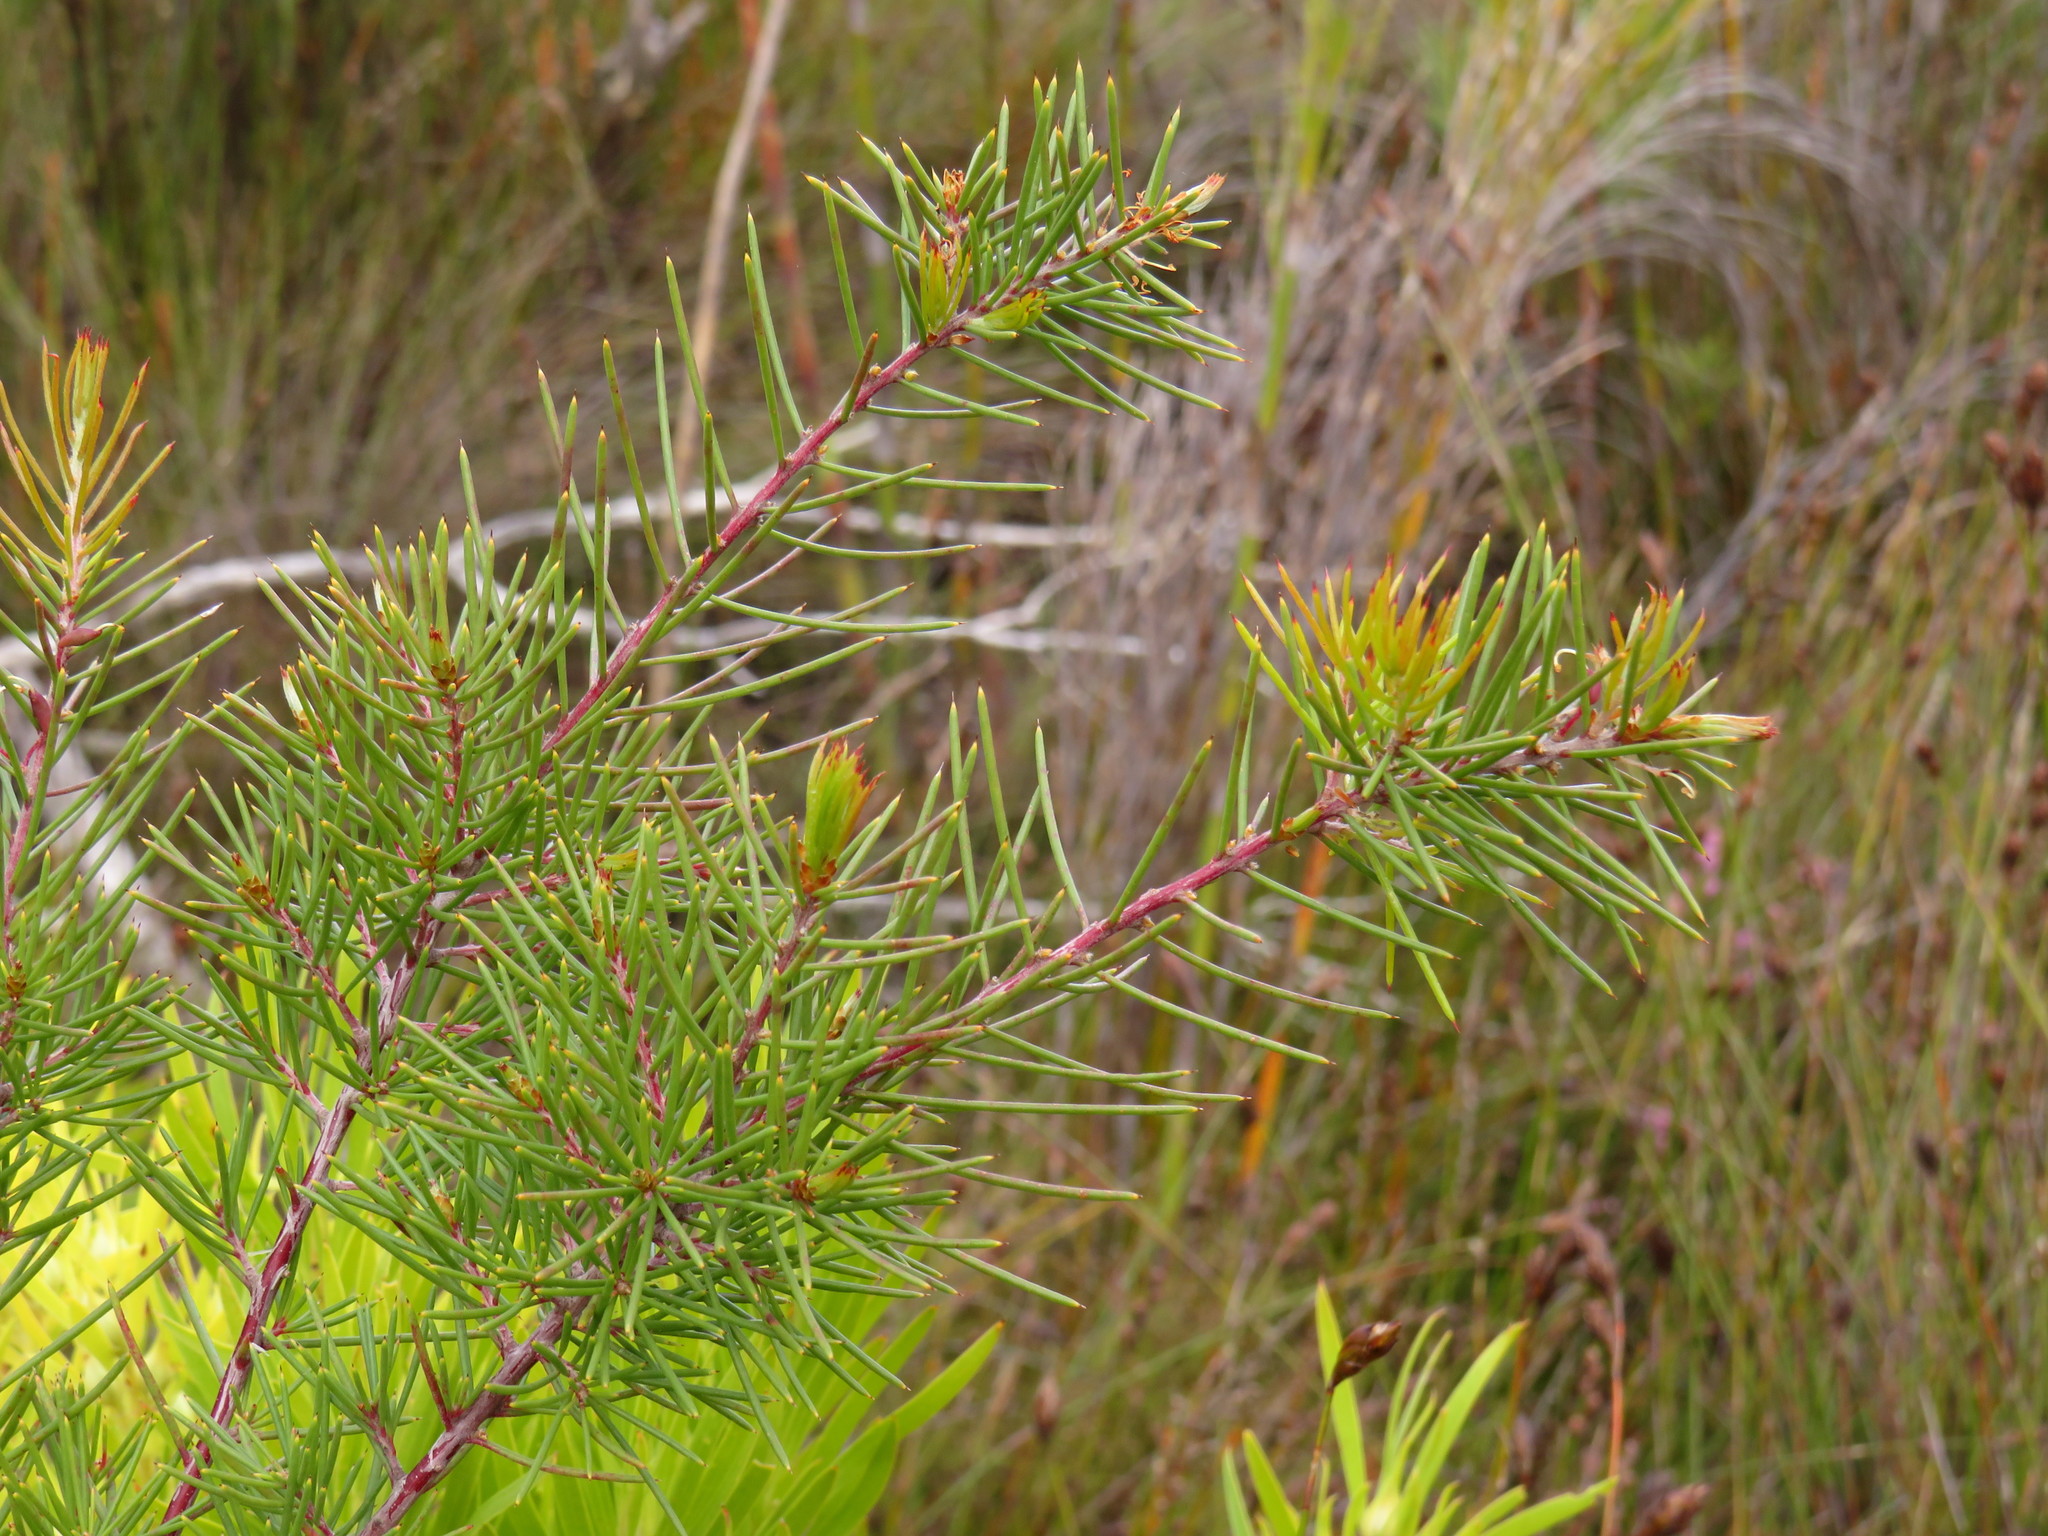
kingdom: Plantae
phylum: Tracheophyta
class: Magnoliopsida
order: Proteales
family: Proteaceae
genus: Hakea
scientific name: Hakea sericea
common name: Needle bush
